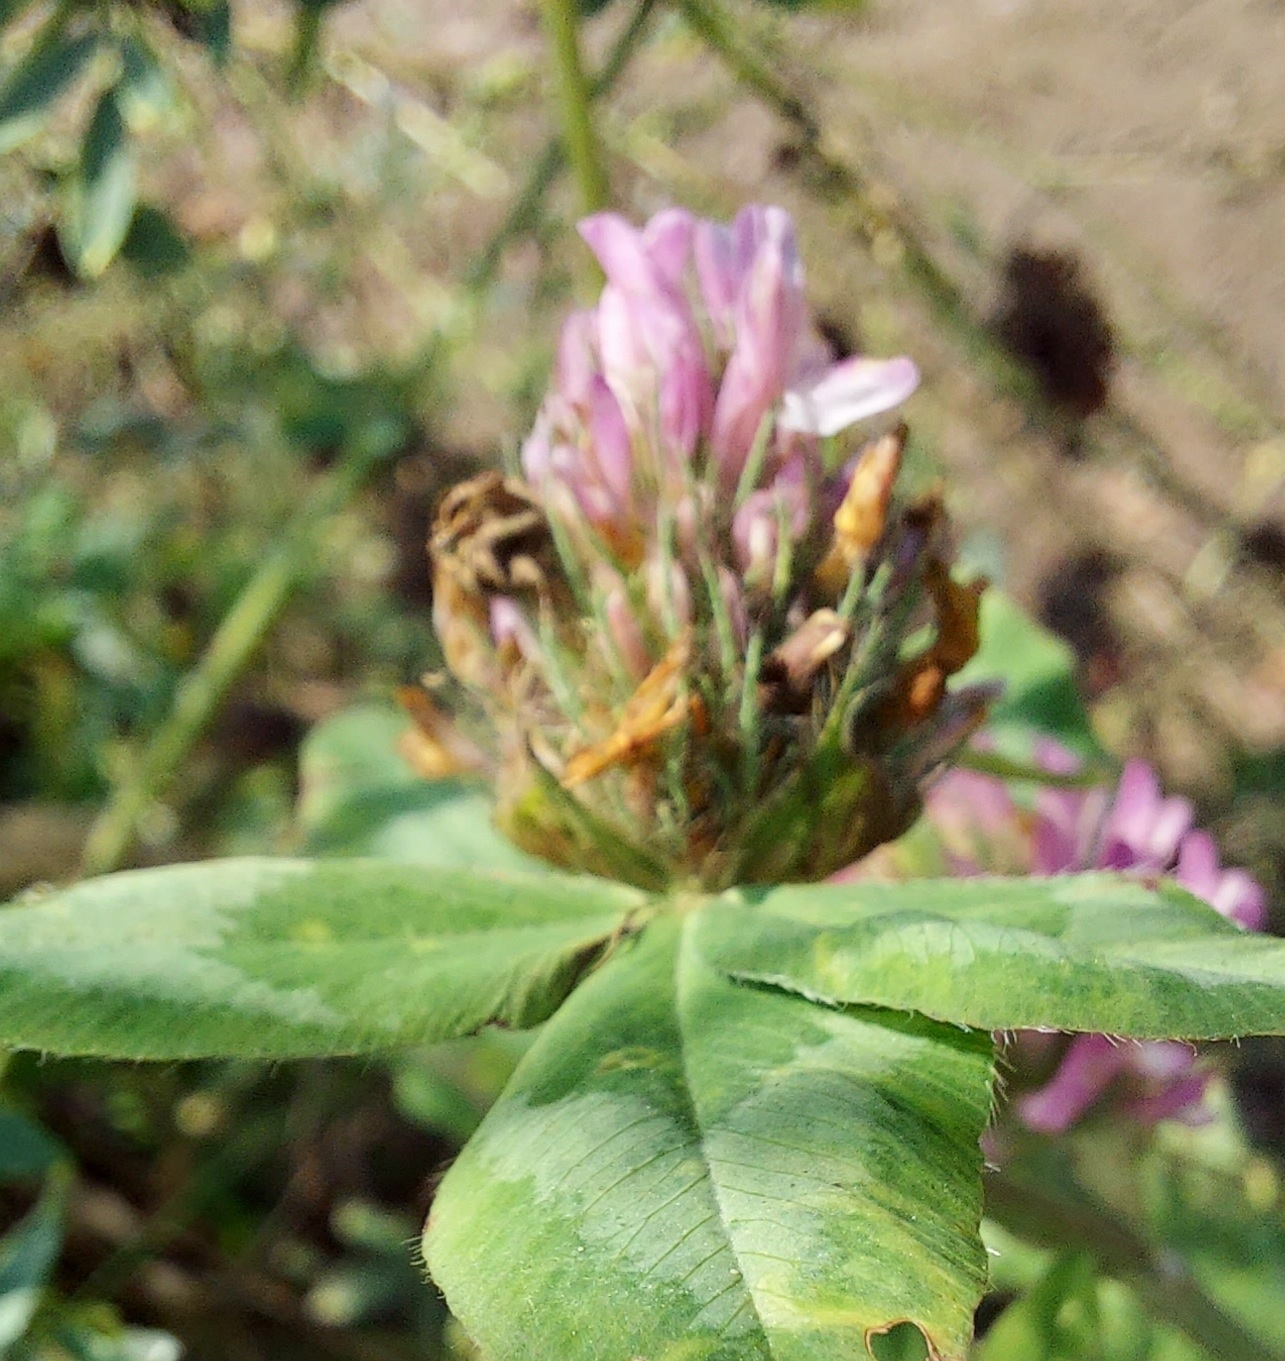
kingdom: Plantae
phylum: Tracheophyta
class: Magnoliopsida
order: Fabales
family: Fabaceae
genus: Trifolium
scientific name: Trifolium pratense
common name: Red clover
